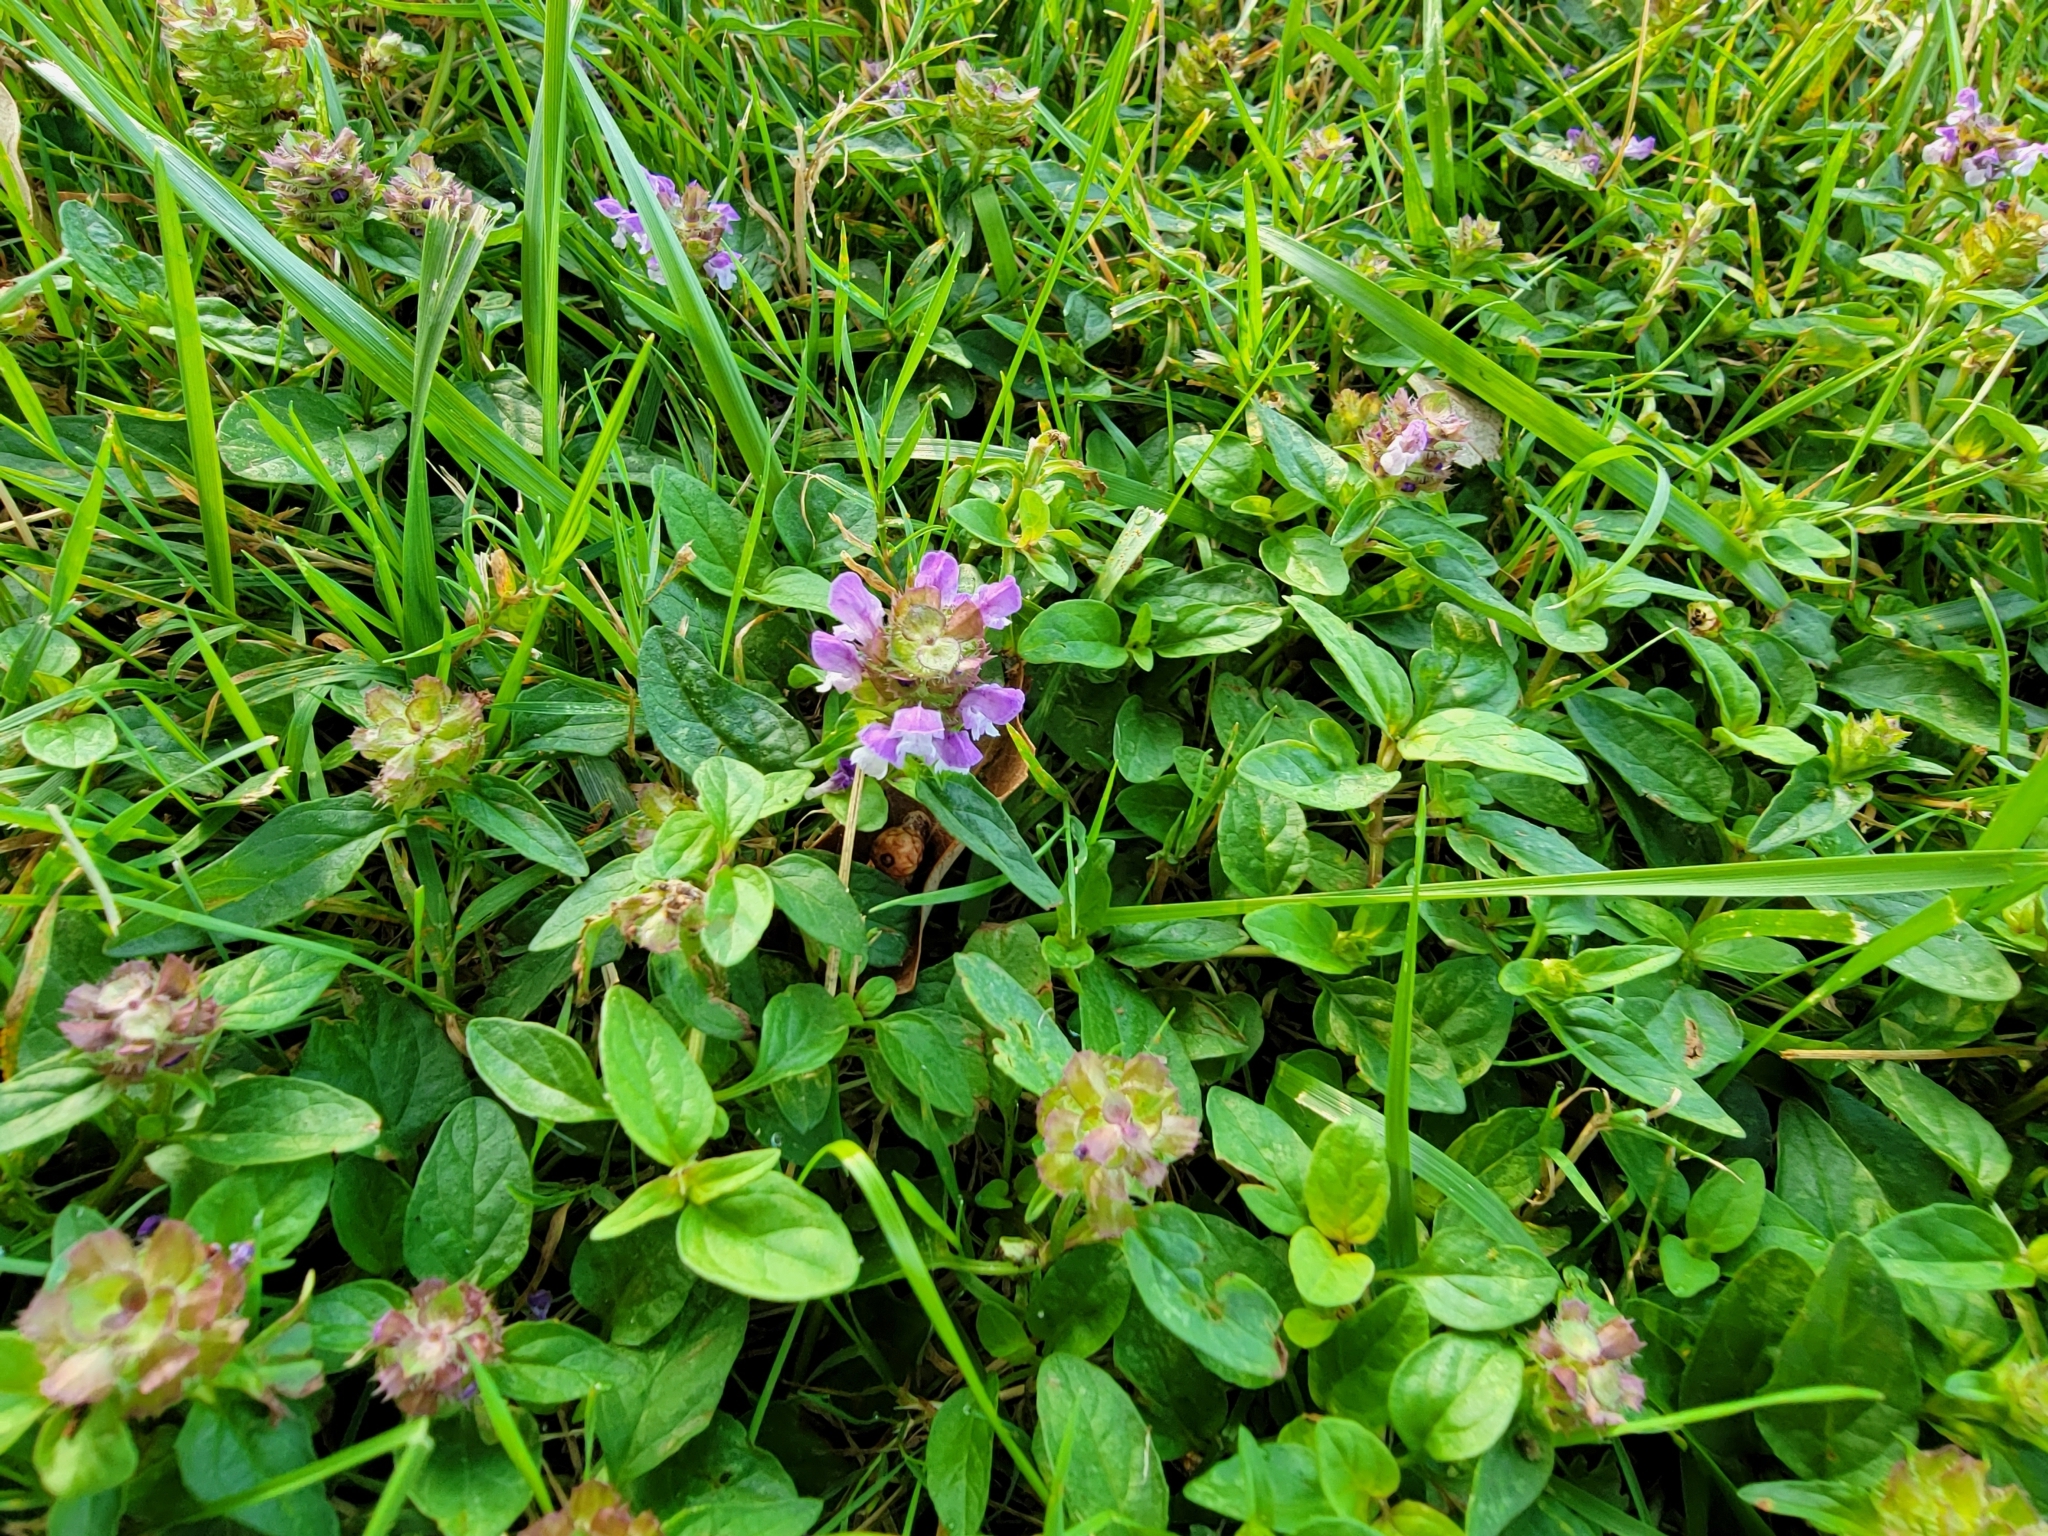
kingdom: Plantae
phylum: Tracheophyta
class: Magnoliopsida
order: Lamiales
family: Lamiaceae
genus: Prunella
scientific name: Prunella vulgaris
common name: Heal-all
